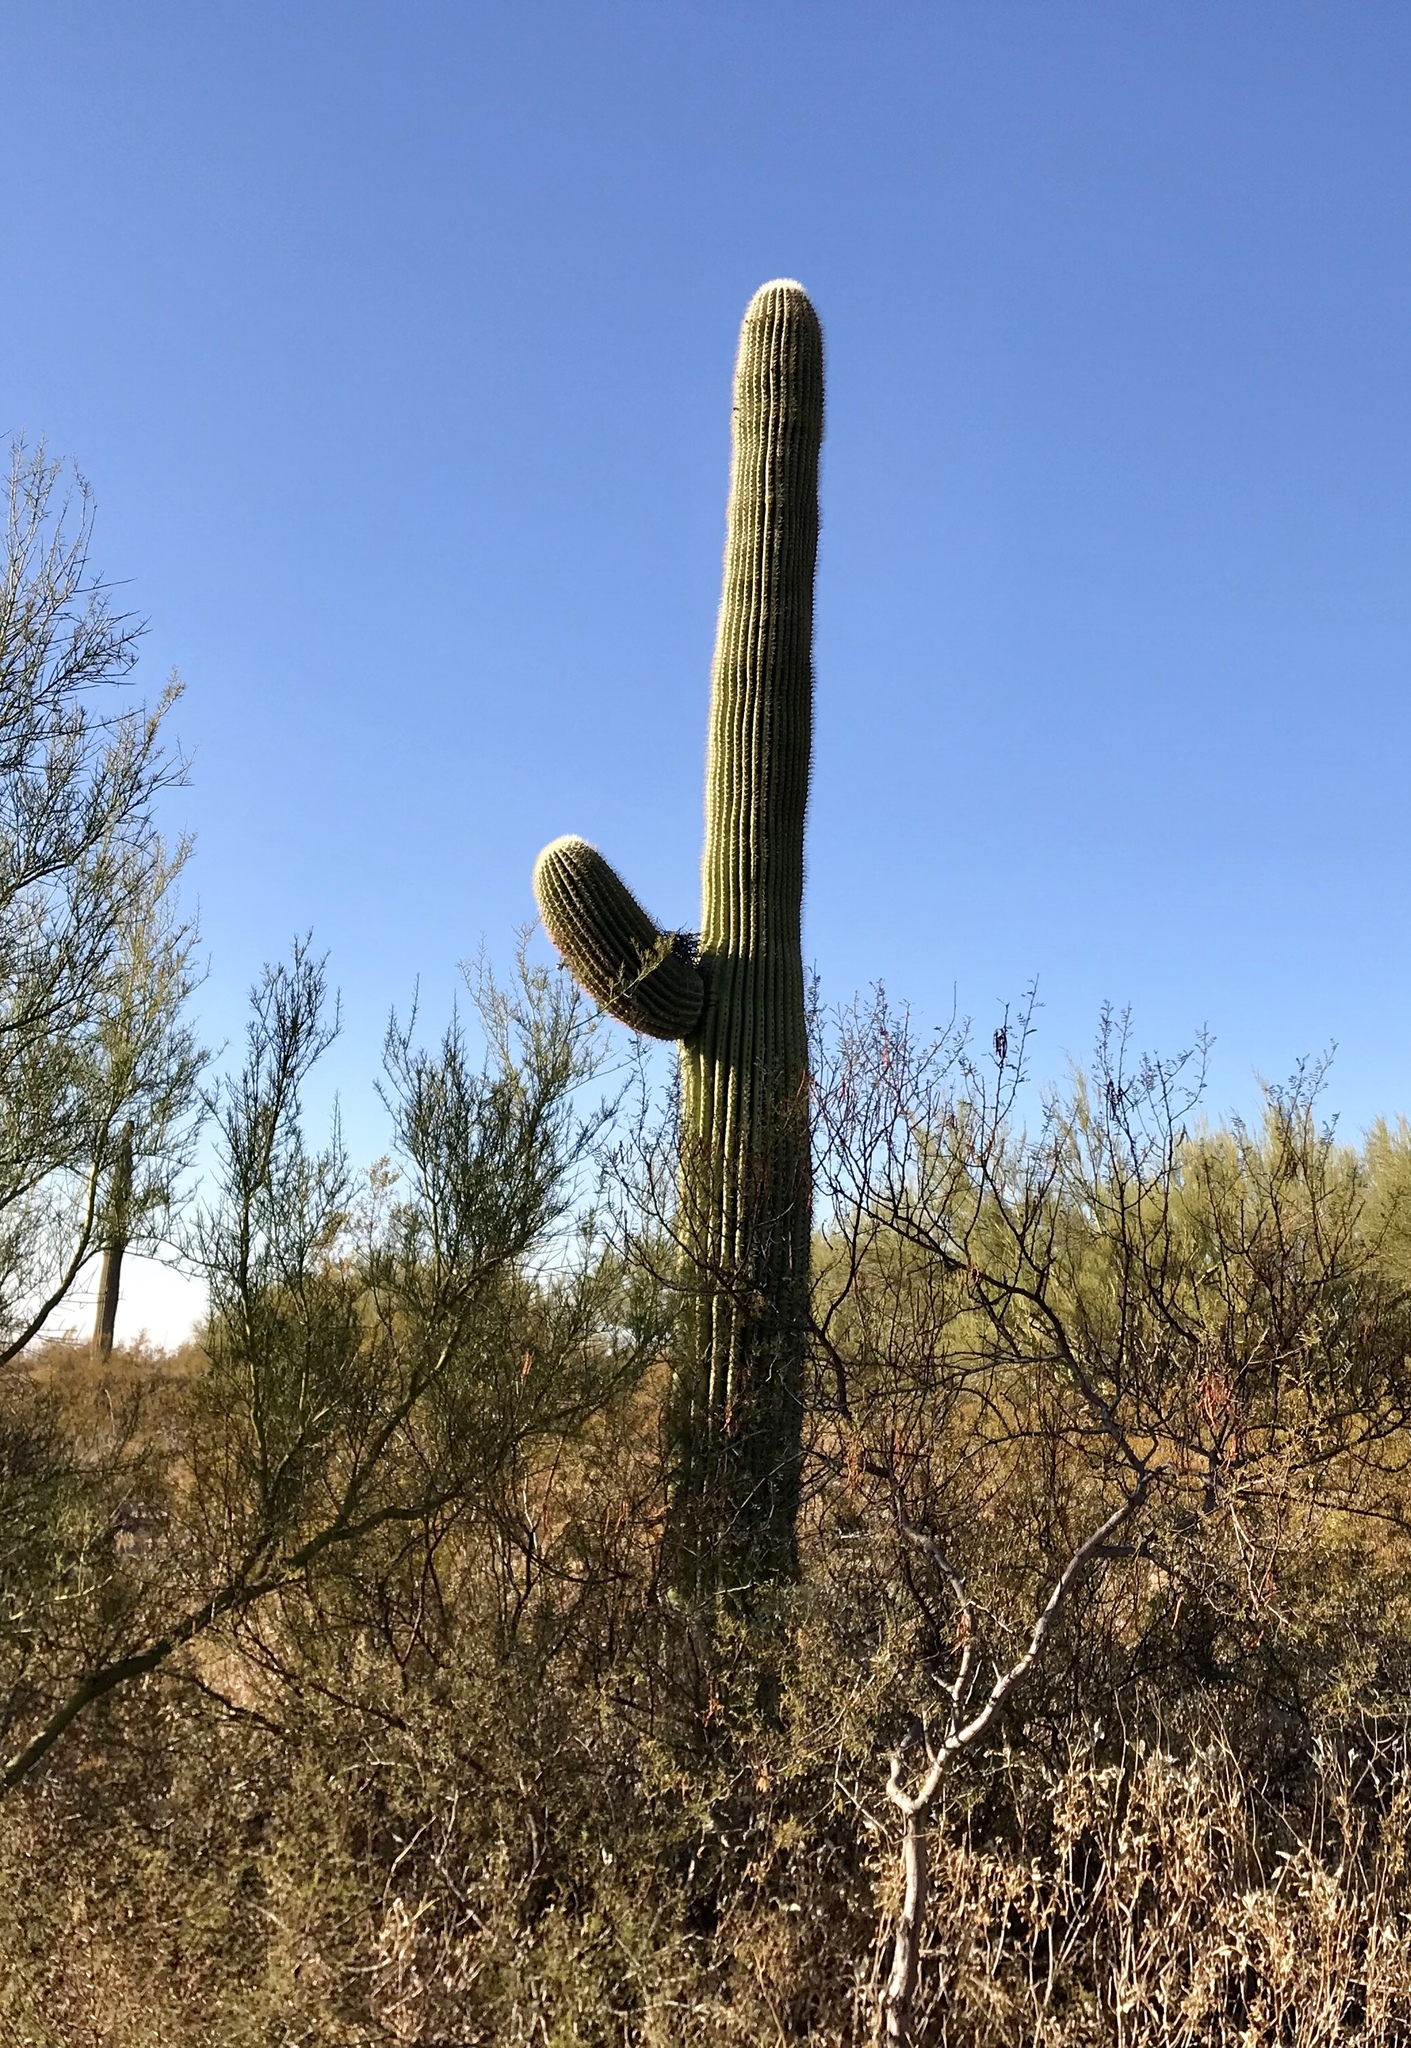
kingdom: Plantae
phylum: Tracheophyta
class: Magnoliopsida
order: Caryophyllales
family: Cactaceae
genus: Carnegiea
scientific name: Carnegiea gigantea
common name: Saguaro
